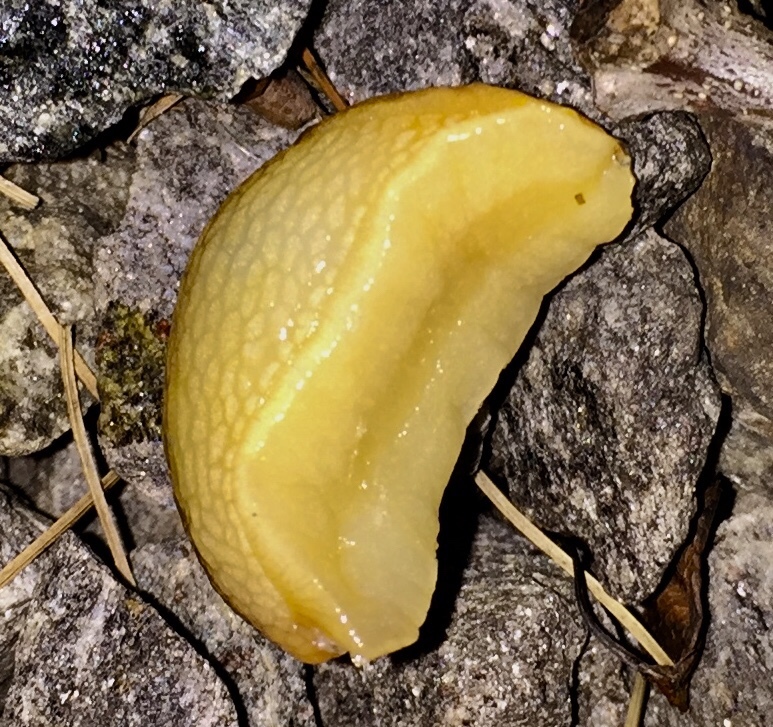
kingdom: Animalia
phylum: Mollusca
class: Gastropoda
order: Stylommatophora
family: Arionidae
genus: Arion
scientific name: Arion subfuscus
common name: Dusky arion
